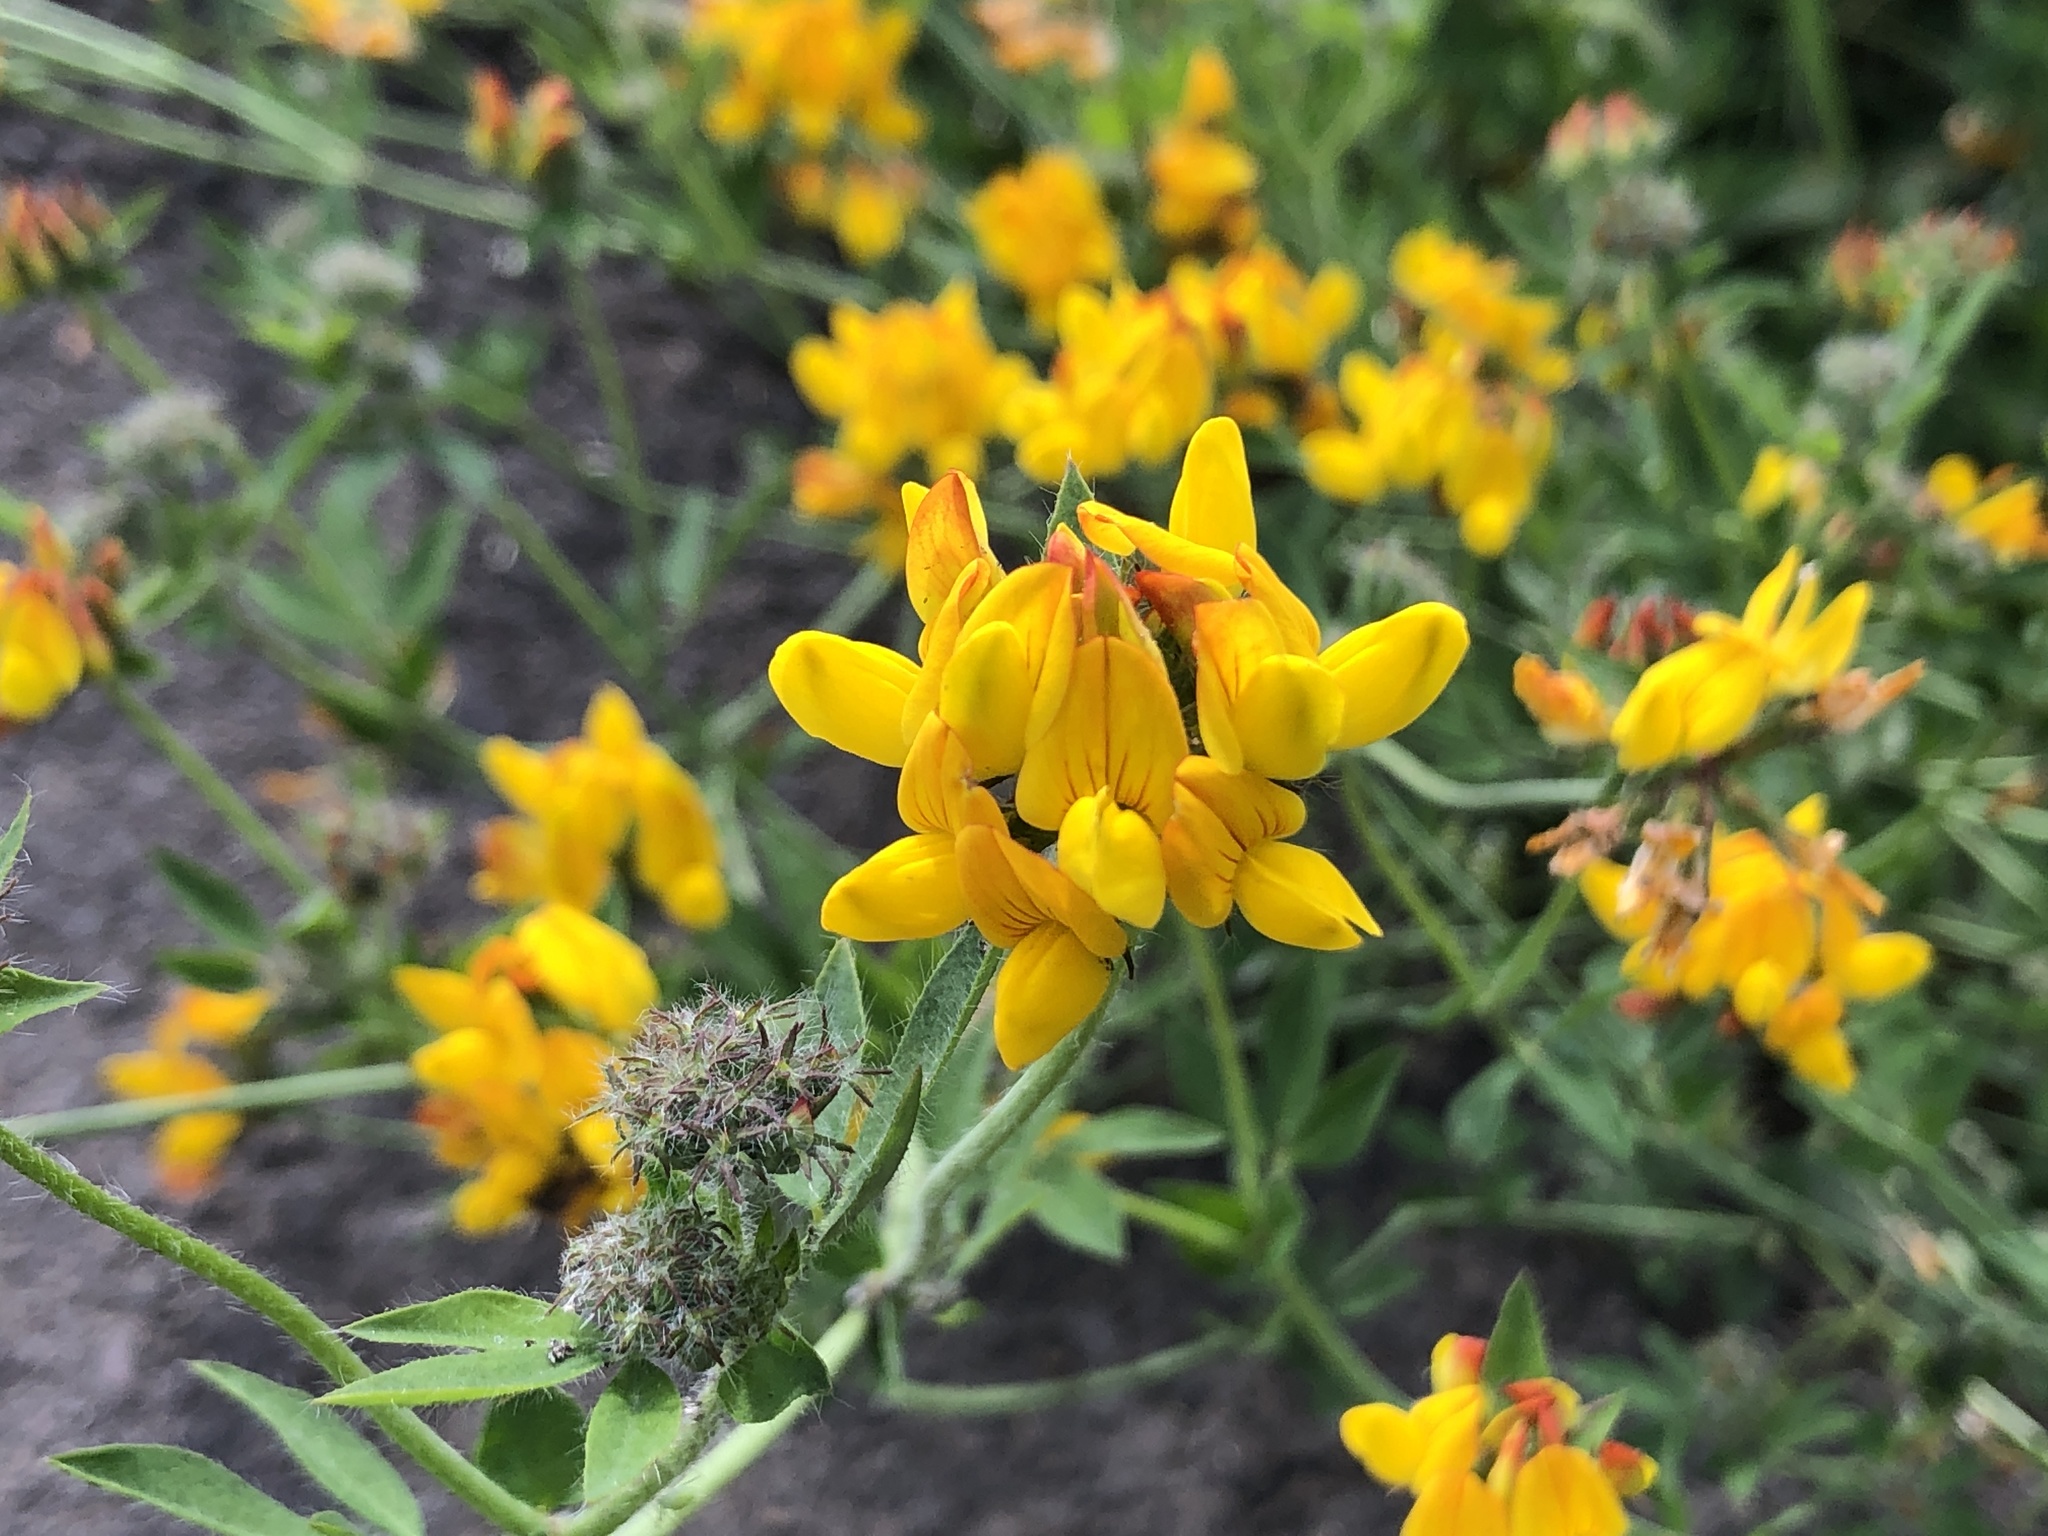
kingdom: Plantae
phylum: Tracheophyta
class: Magnoliopsida
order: Fabales
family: Fabaceae
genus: Lotus
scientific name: Lotus
